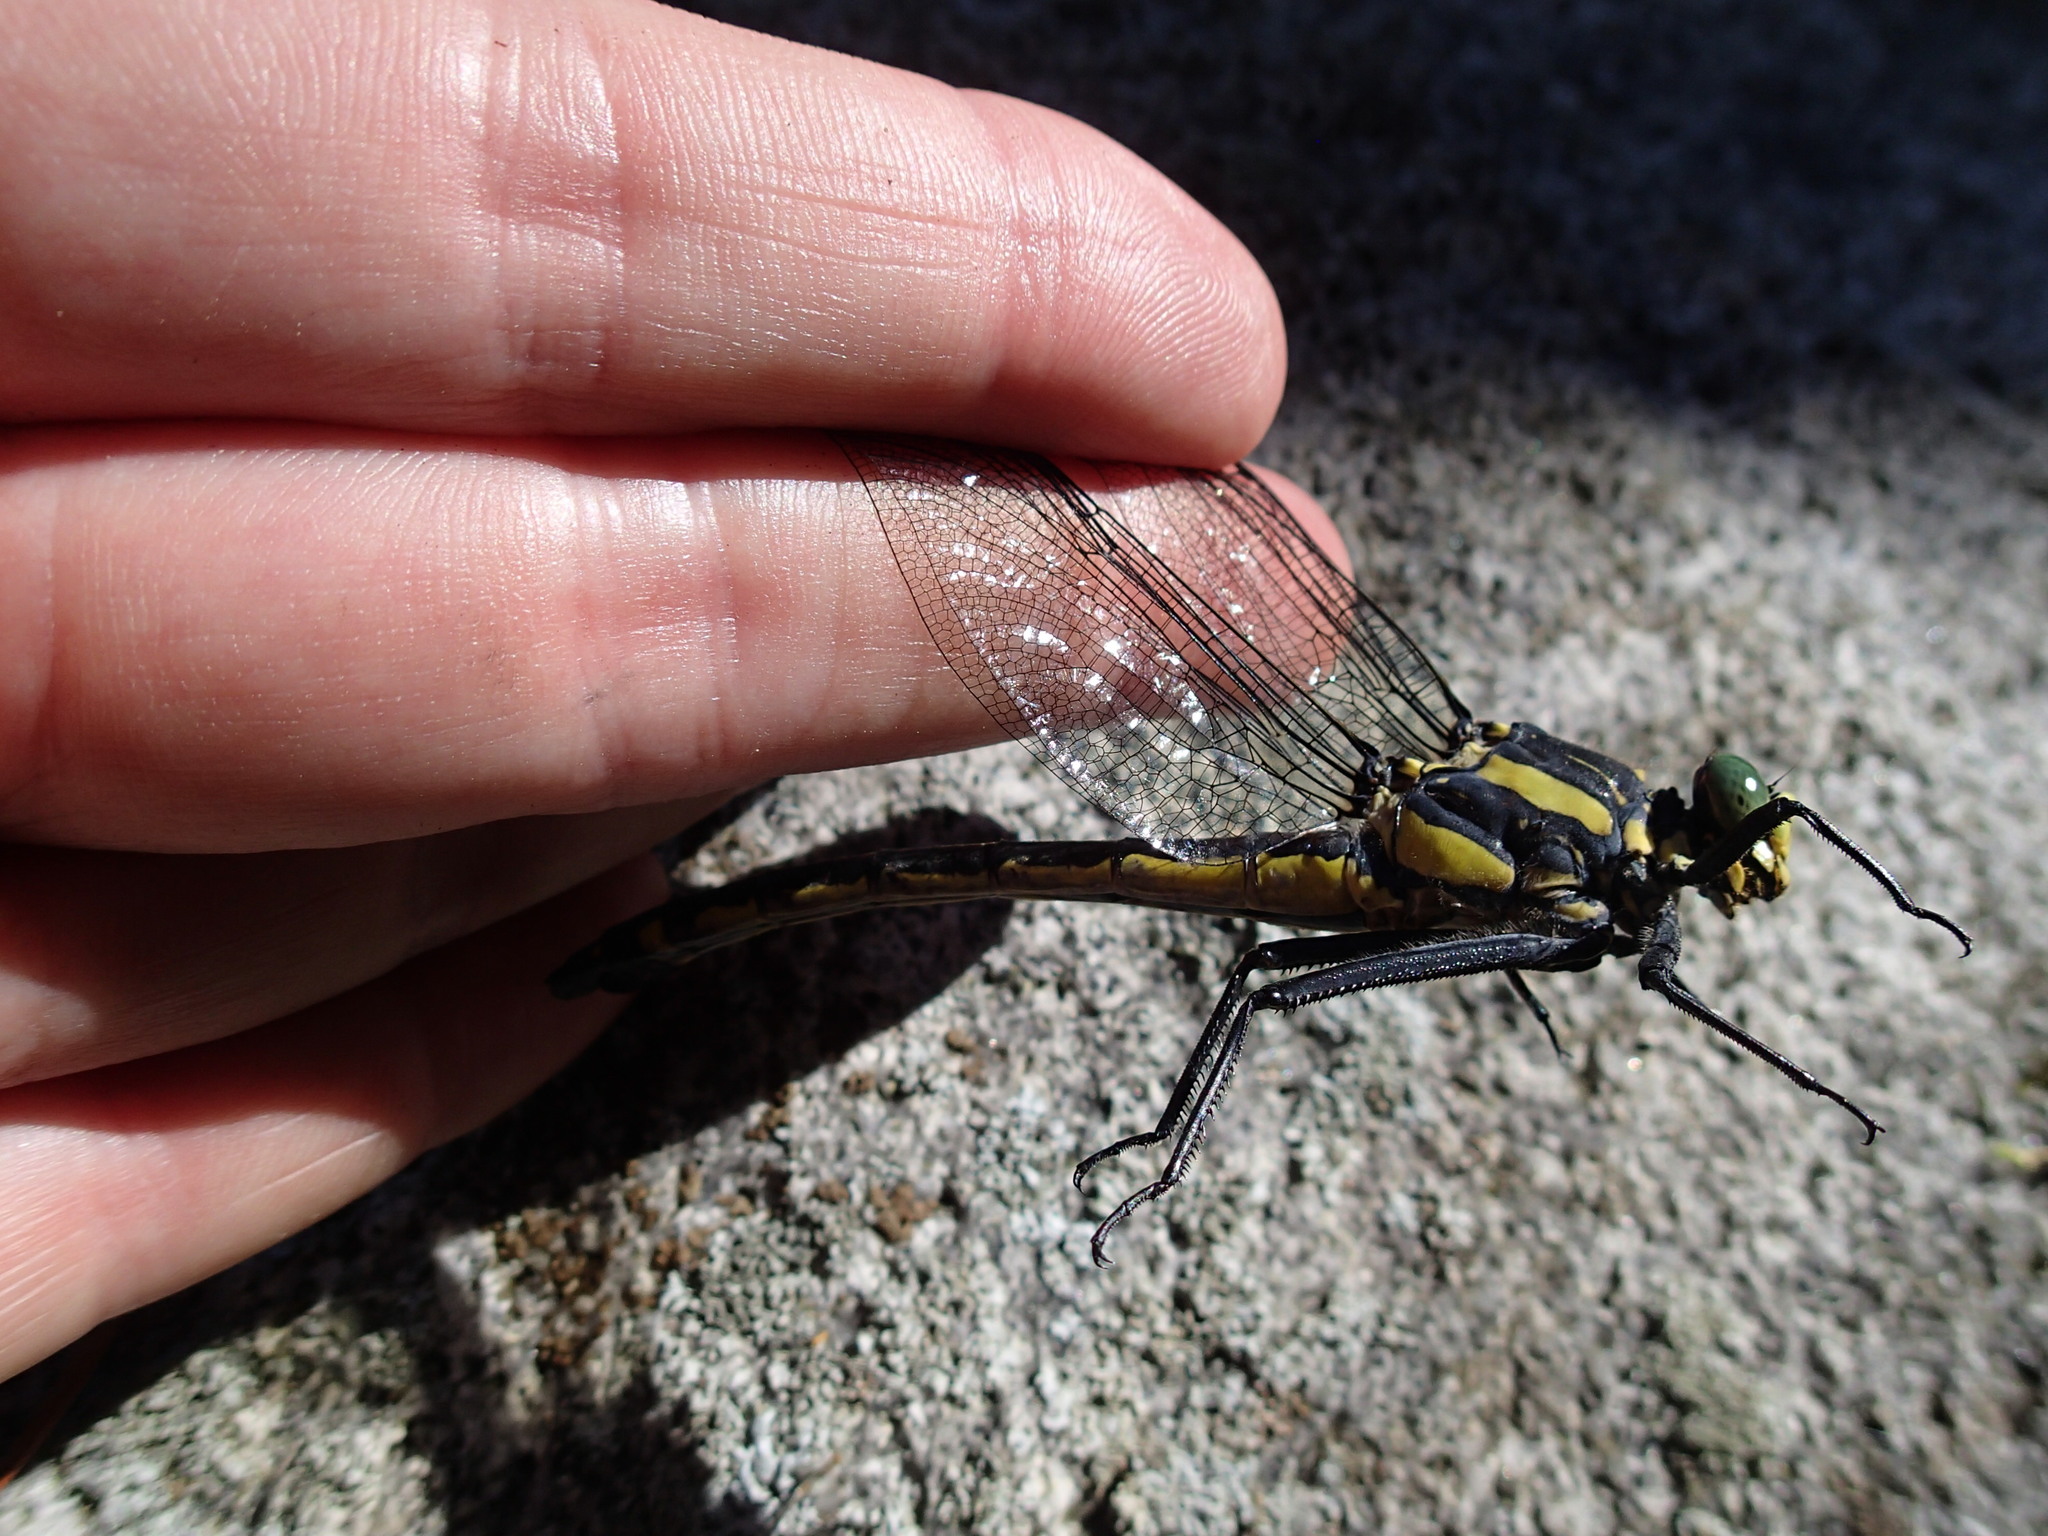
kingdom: Animalia
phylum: Arthropoda
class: Insecta
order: Odonata
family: Gomphidae
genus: Hagenius
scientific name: Hagenius brevistylus
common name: Dragonhunter
